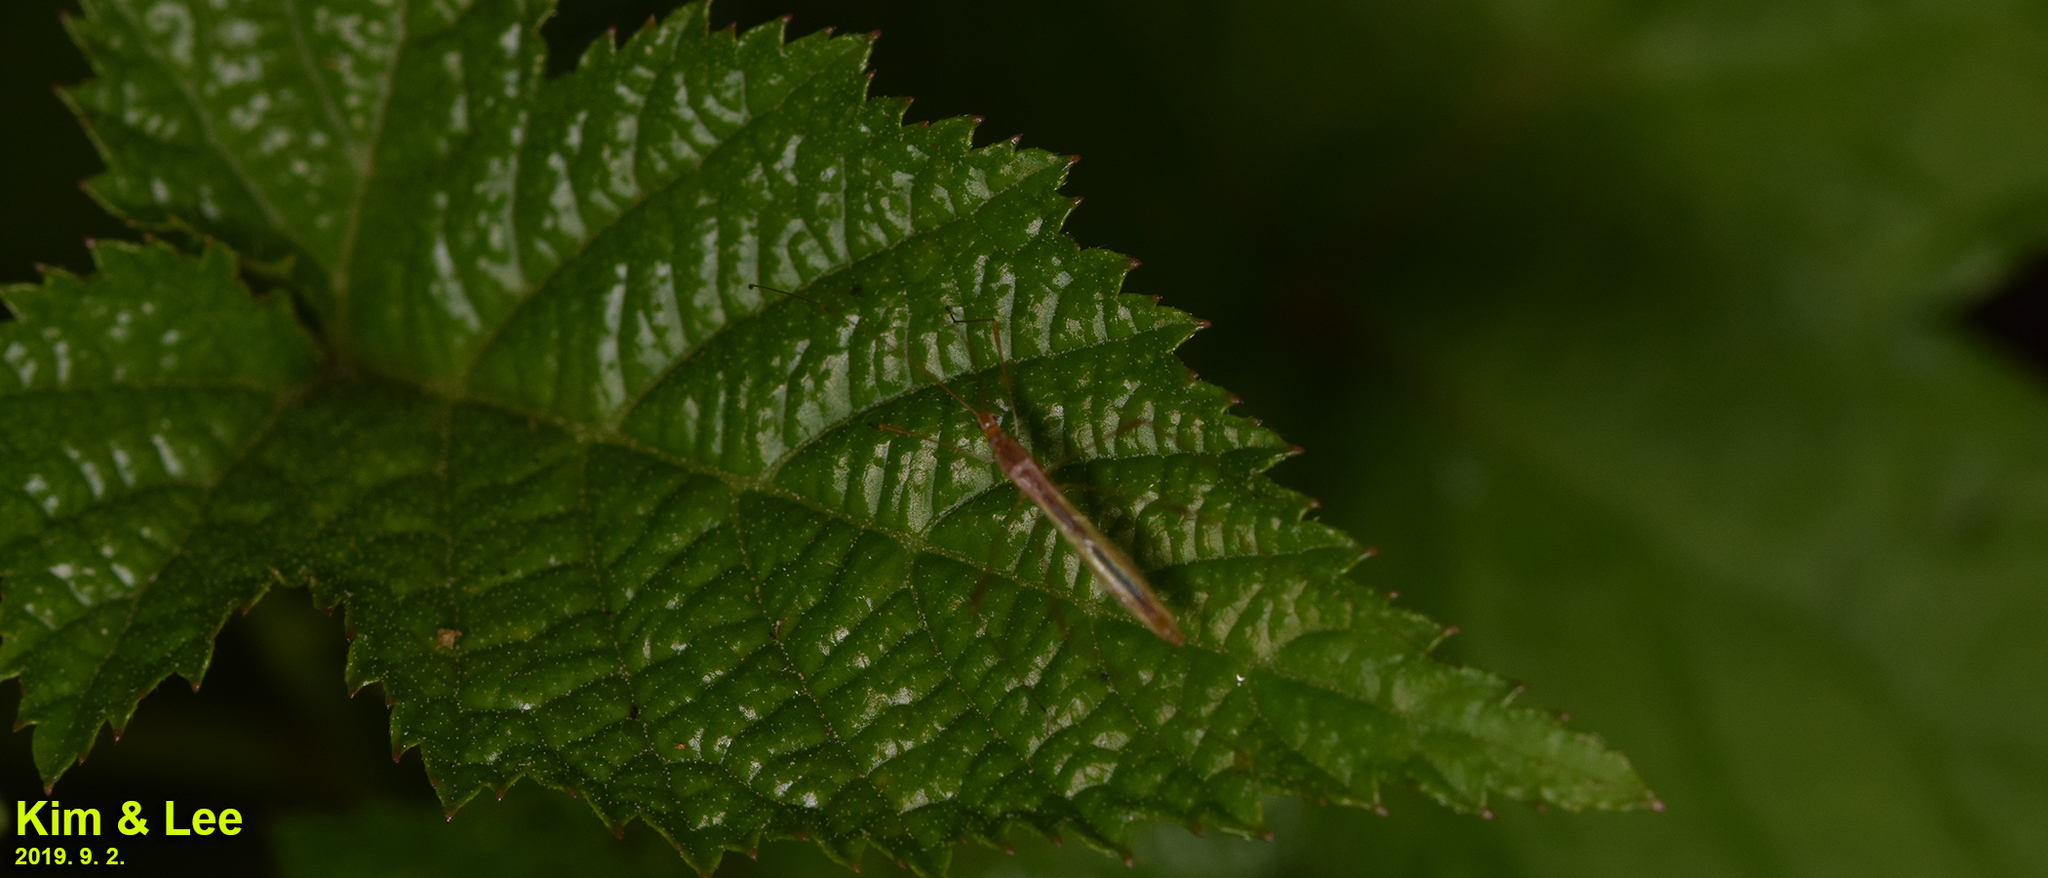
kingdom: Animalia
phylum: Arthropoda
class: Insecta
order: Hemiptera
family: Berytidae
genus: Yemma
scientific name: Yemma exilis
